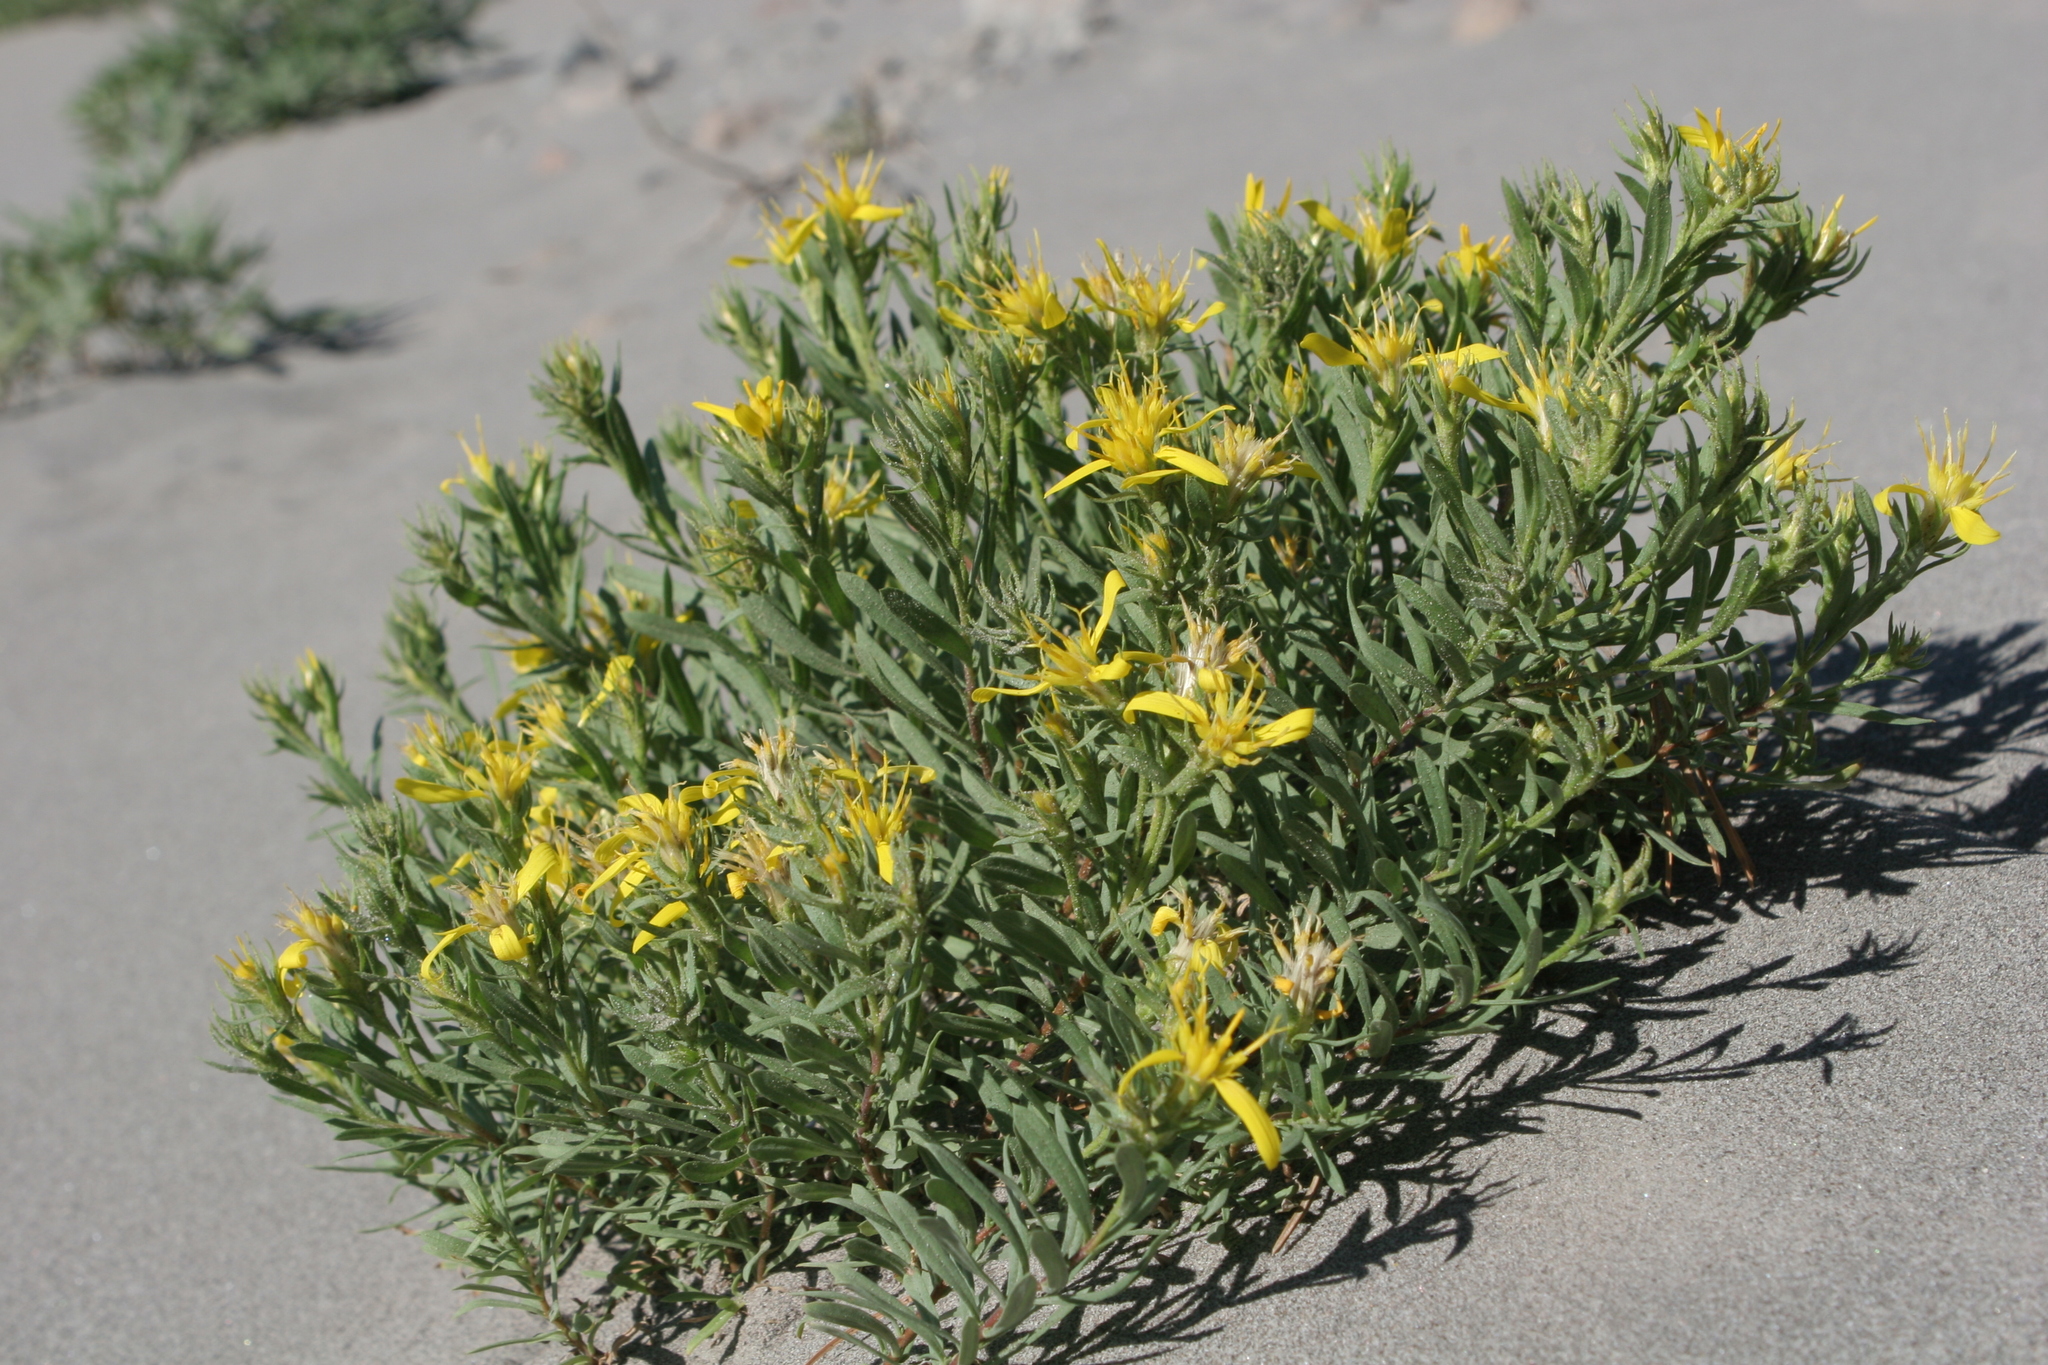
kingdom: Plantae
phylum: Tracheophyta
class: Magnoliopsida
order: Asterales
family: Asteraceae
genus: Ericameria
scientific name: Ericameria greenei
